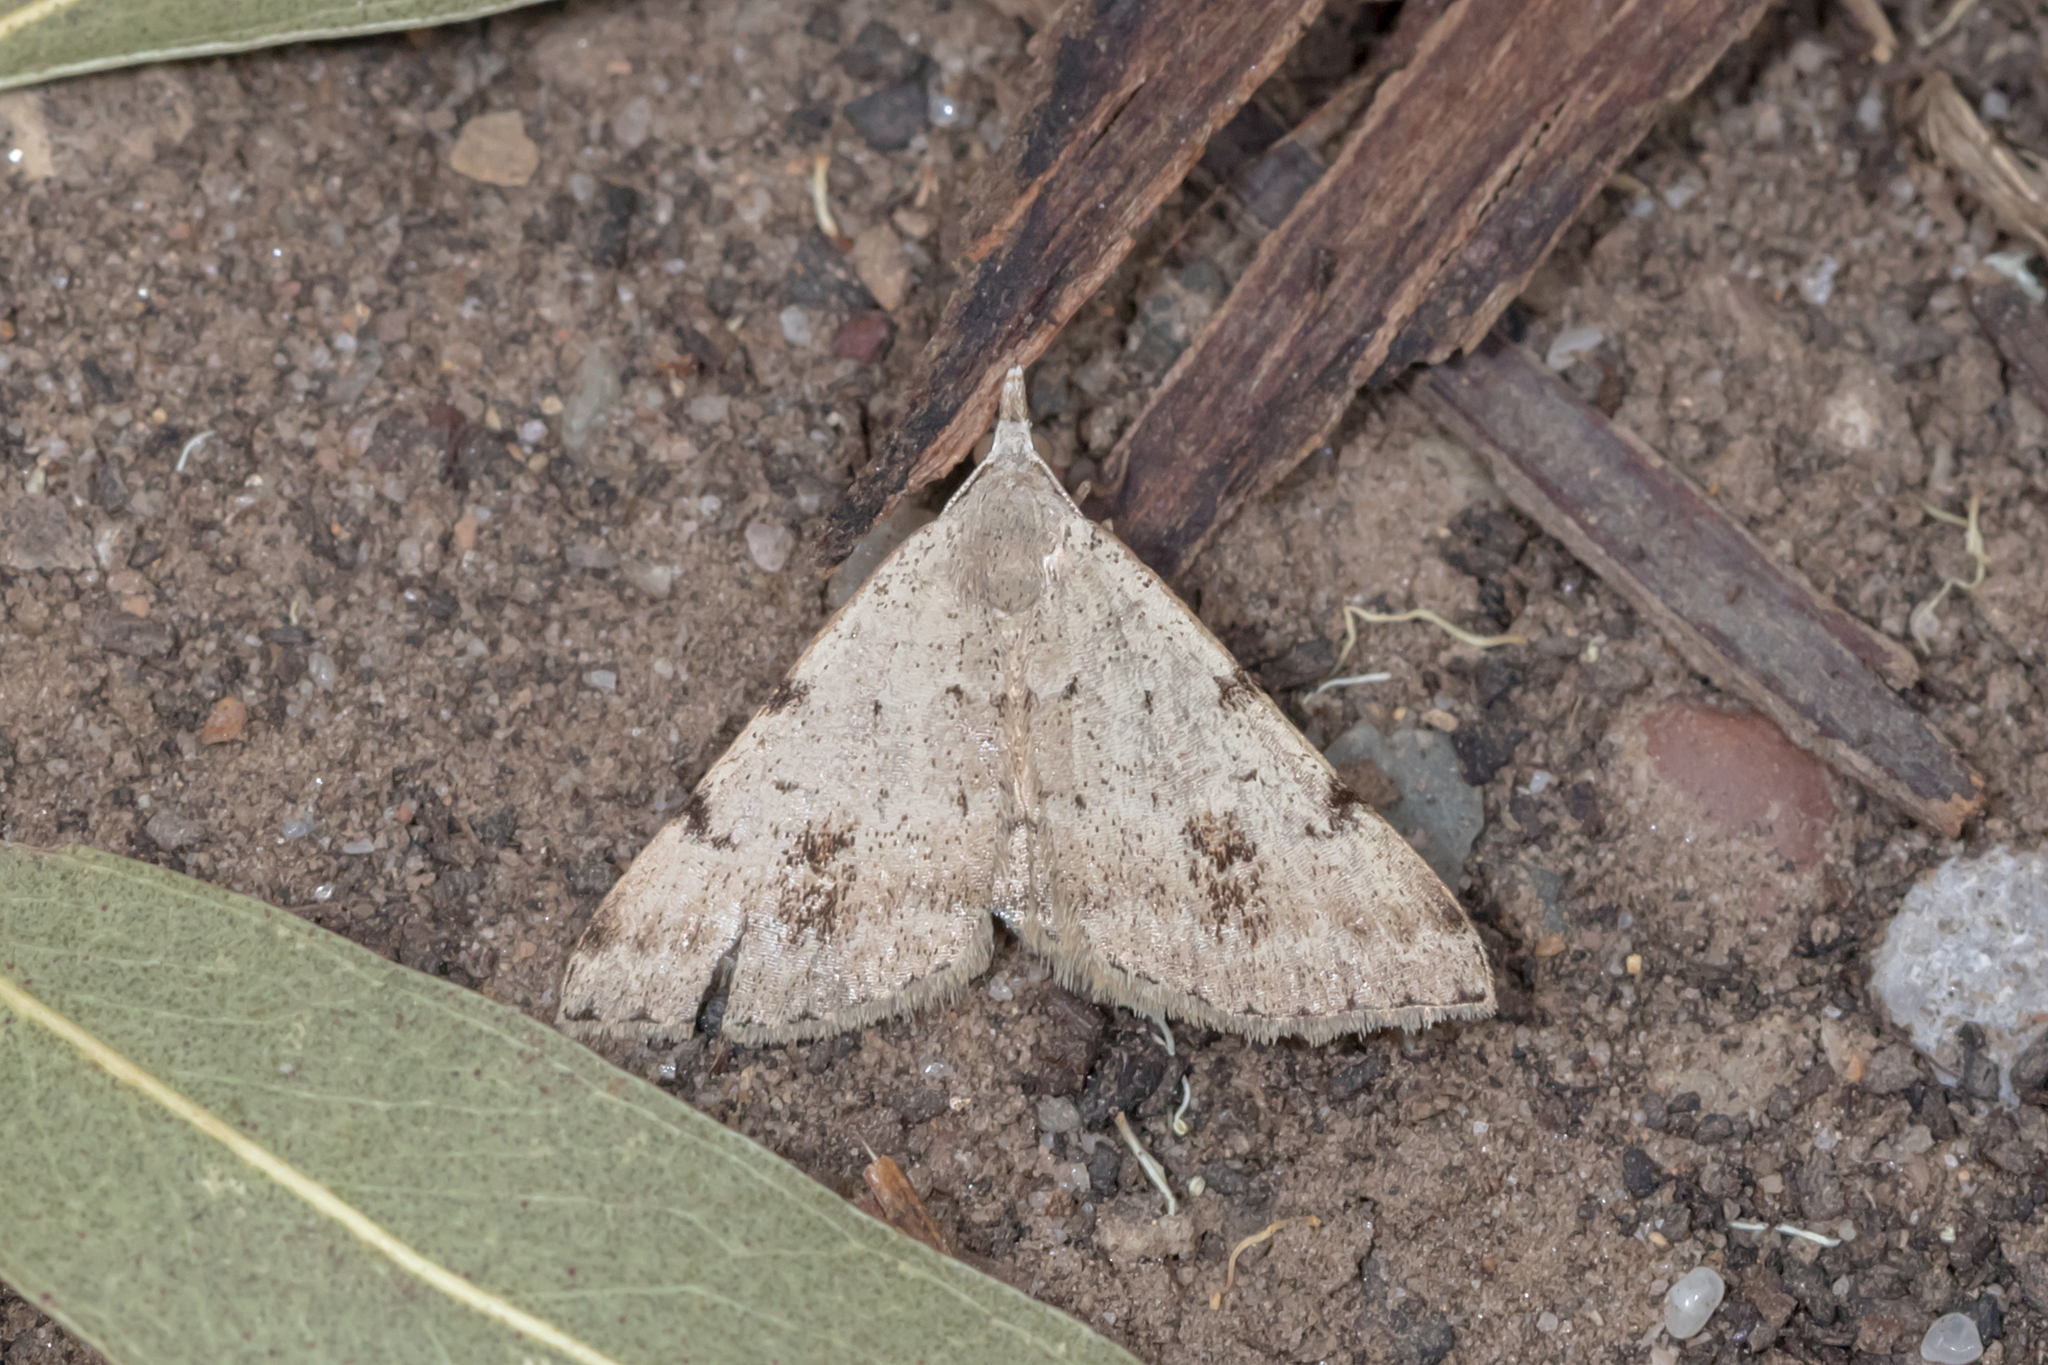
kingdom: Animalia
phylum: Arthropoda
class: Insecta
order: Lepidoptera
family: Geometridae
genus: Dichromodes
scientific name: Dichromodes estigmaria
